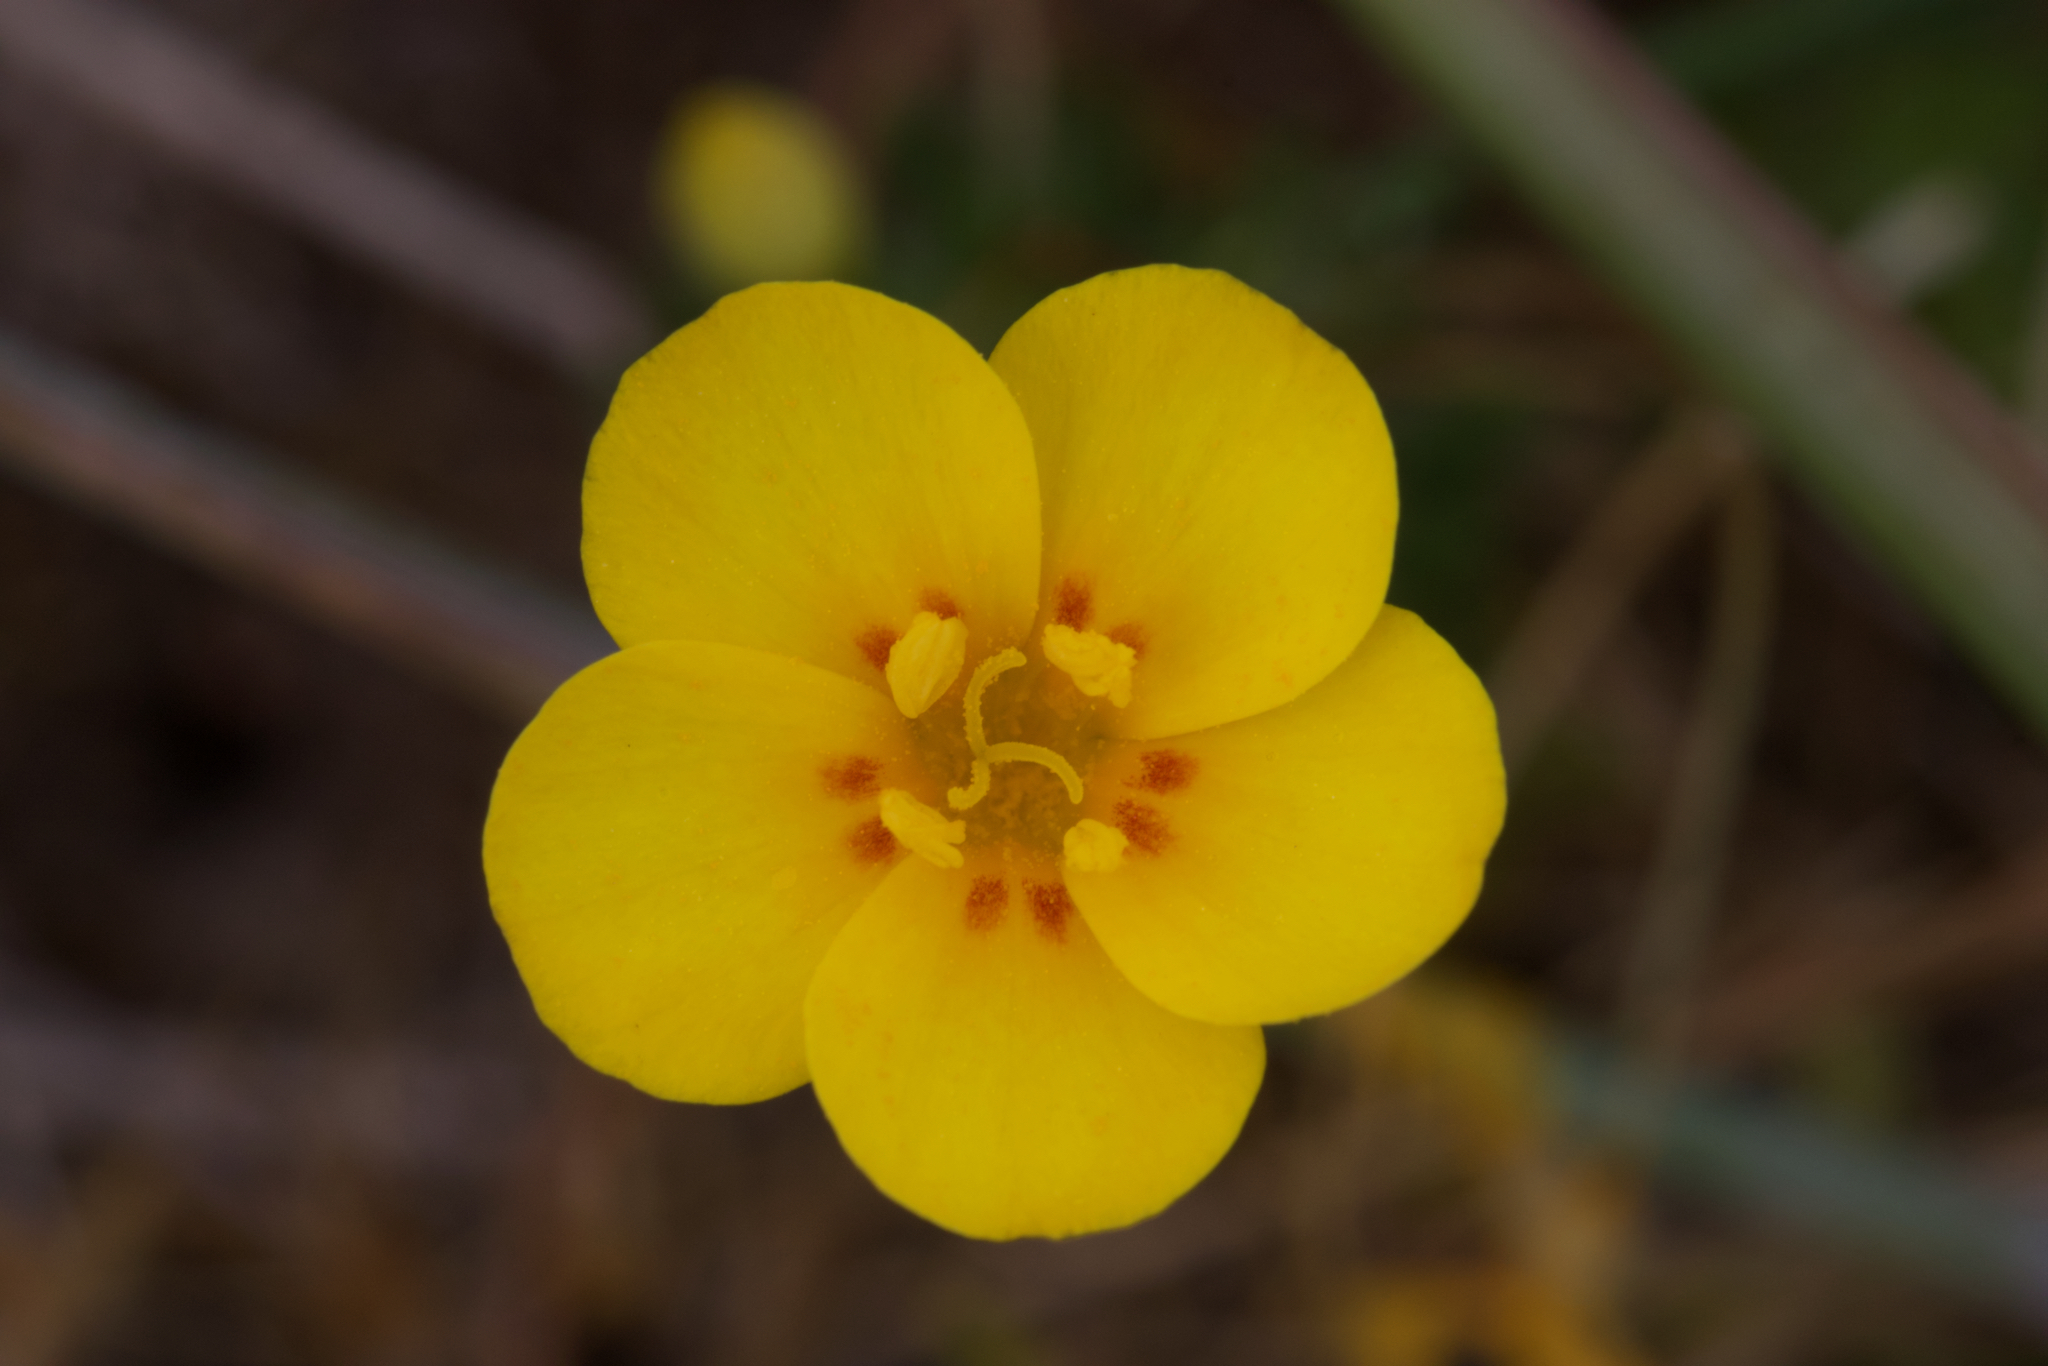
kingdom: Plantae
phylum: Tracheophyta
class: Magnoliopsida
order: Ericales
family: Polemoniaceae
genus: Leptosiphon
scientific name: Leptosiphon croceus
